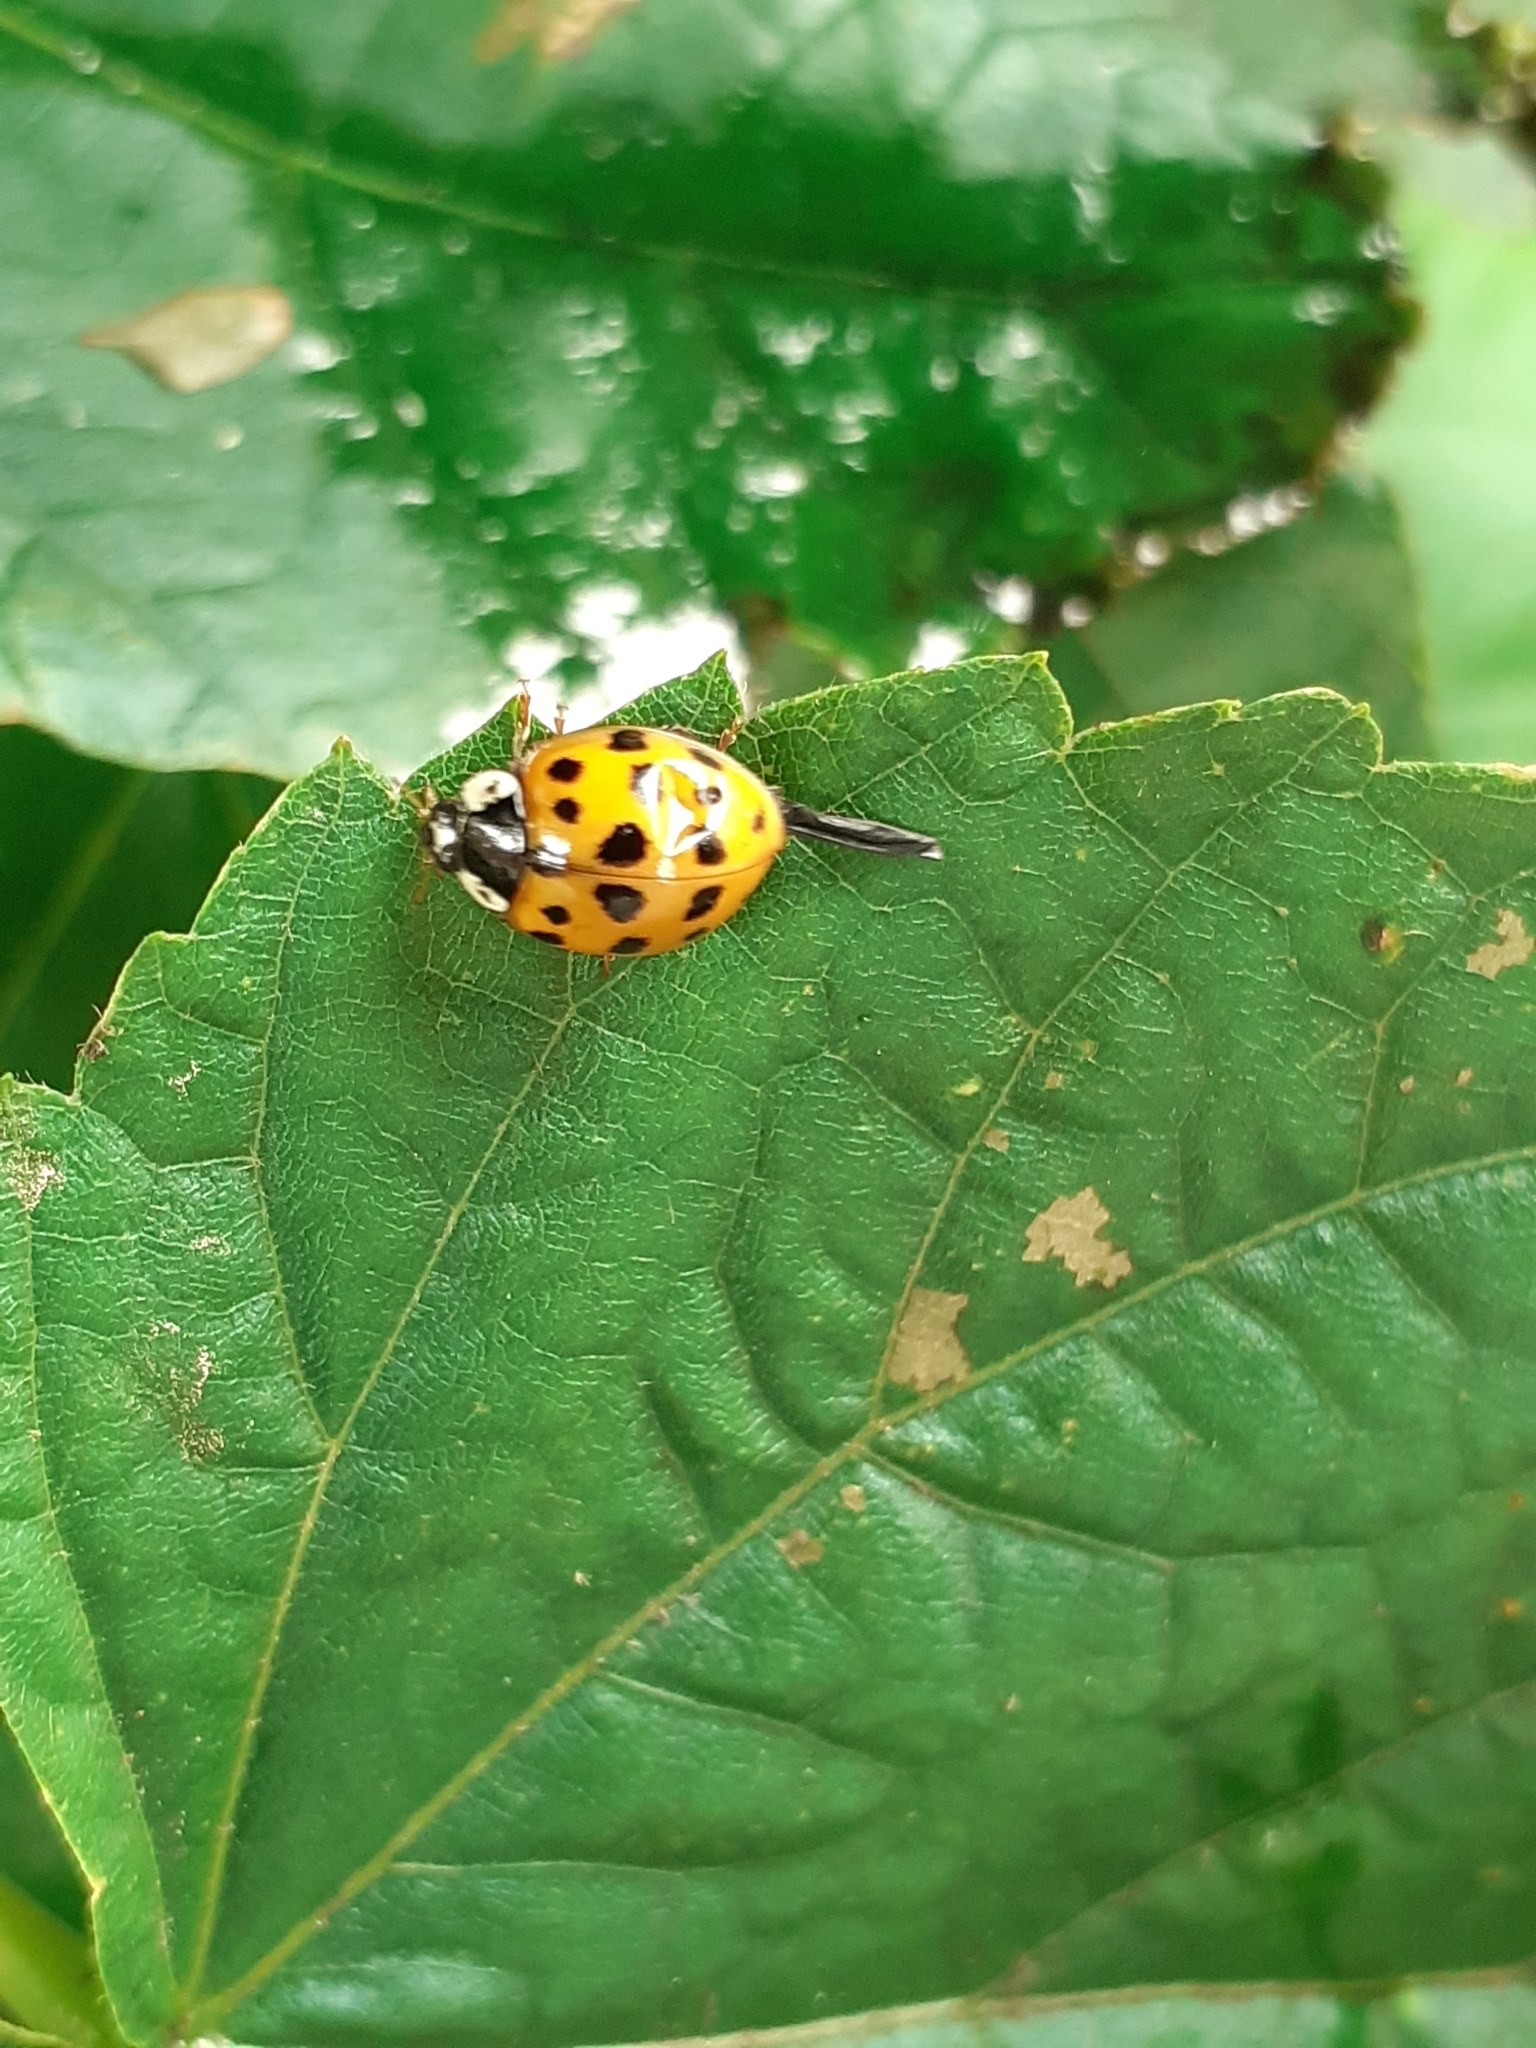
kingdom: Animalia
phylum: Arthropoda
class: Insecta
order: Coleoptera
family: Coccinellidae
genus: Harmonia
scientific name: Harmonia axyridis
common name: Harlequin ladybird
